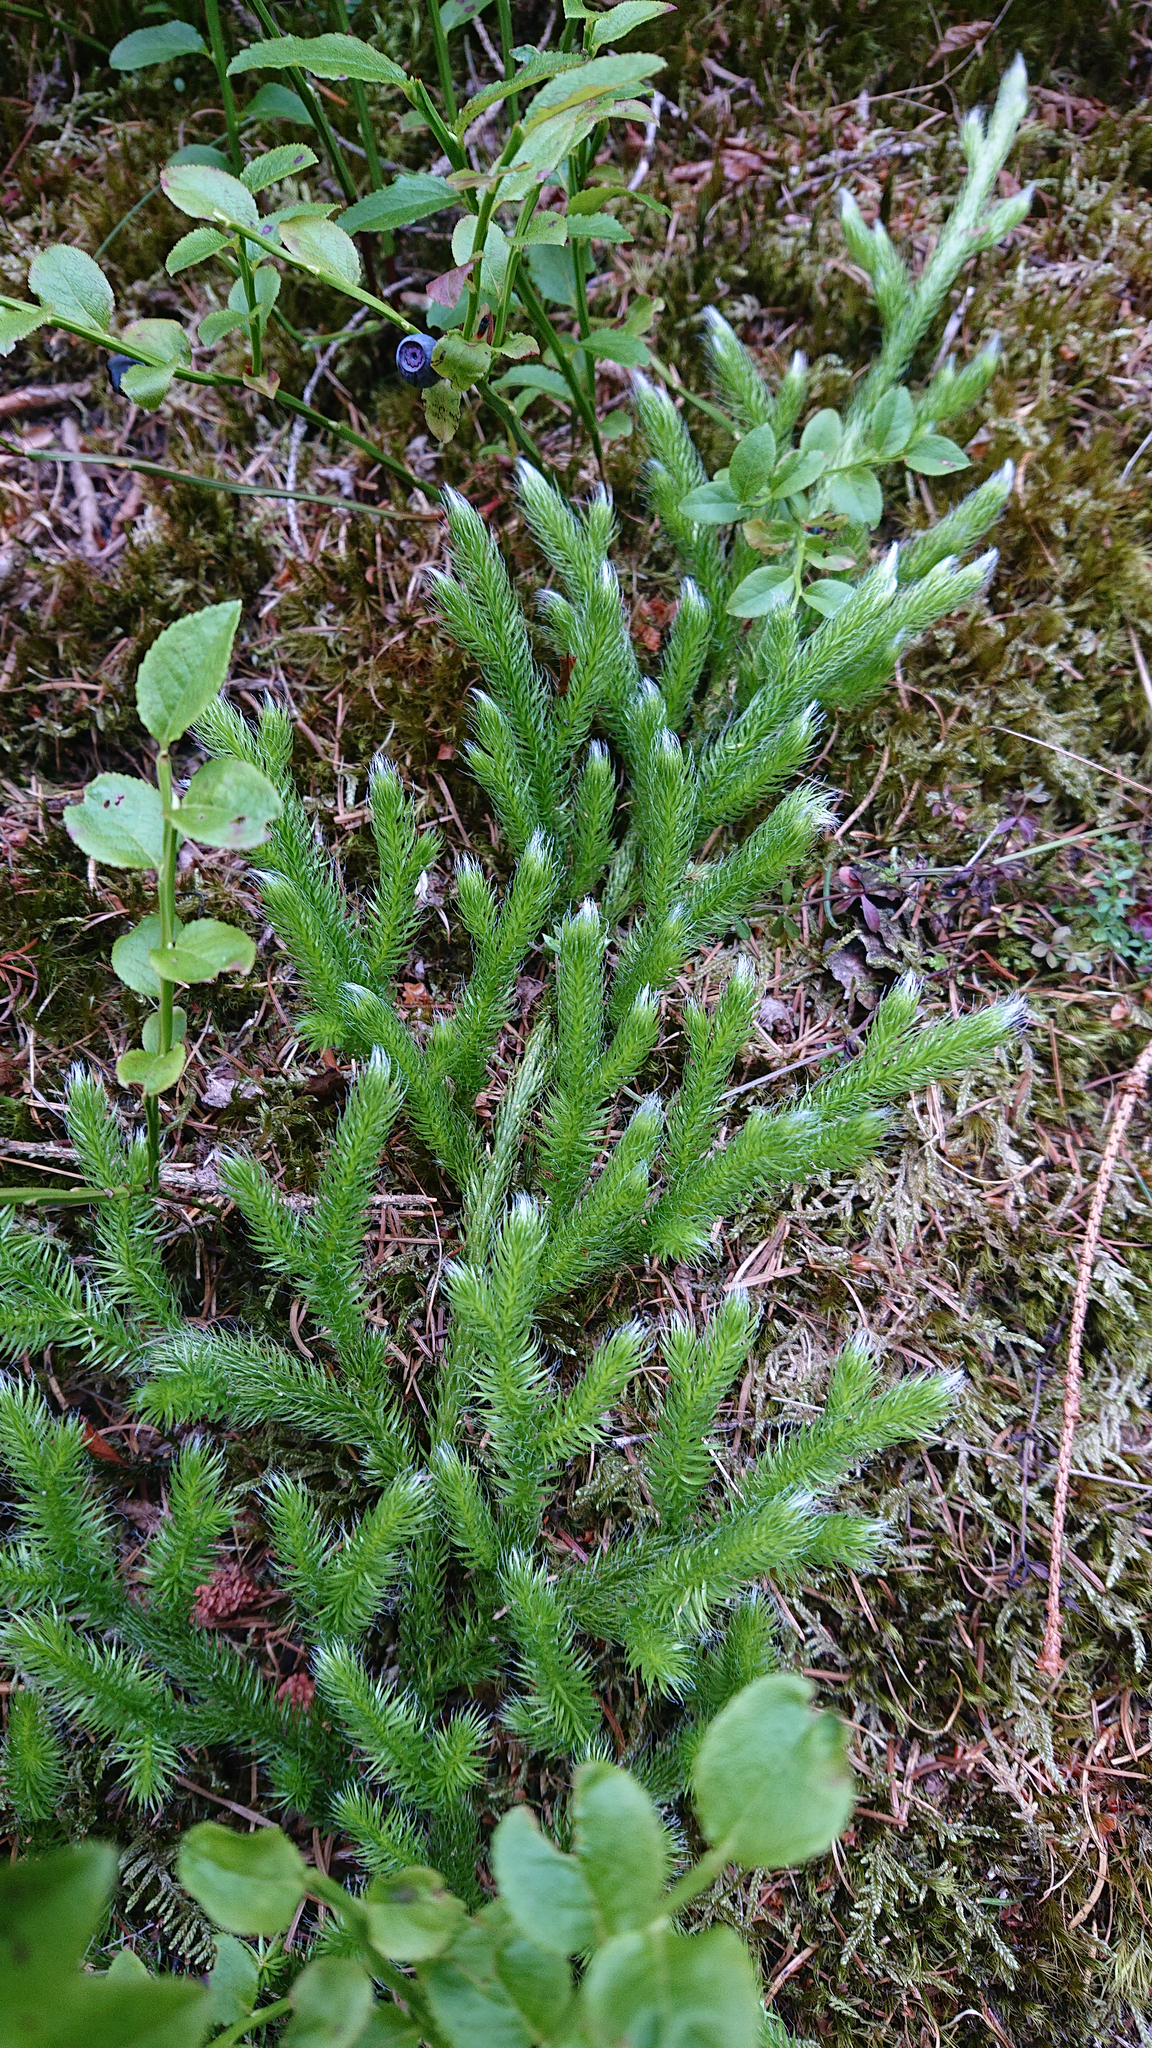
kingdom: Plantae
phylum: Tracheophyta
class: Lycopodiopsida
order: Lycopodiales
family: Lycopodiaceae
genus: Lycopodium
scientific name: Lycopodium clavatum
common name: Stag's-horn clubmoss
